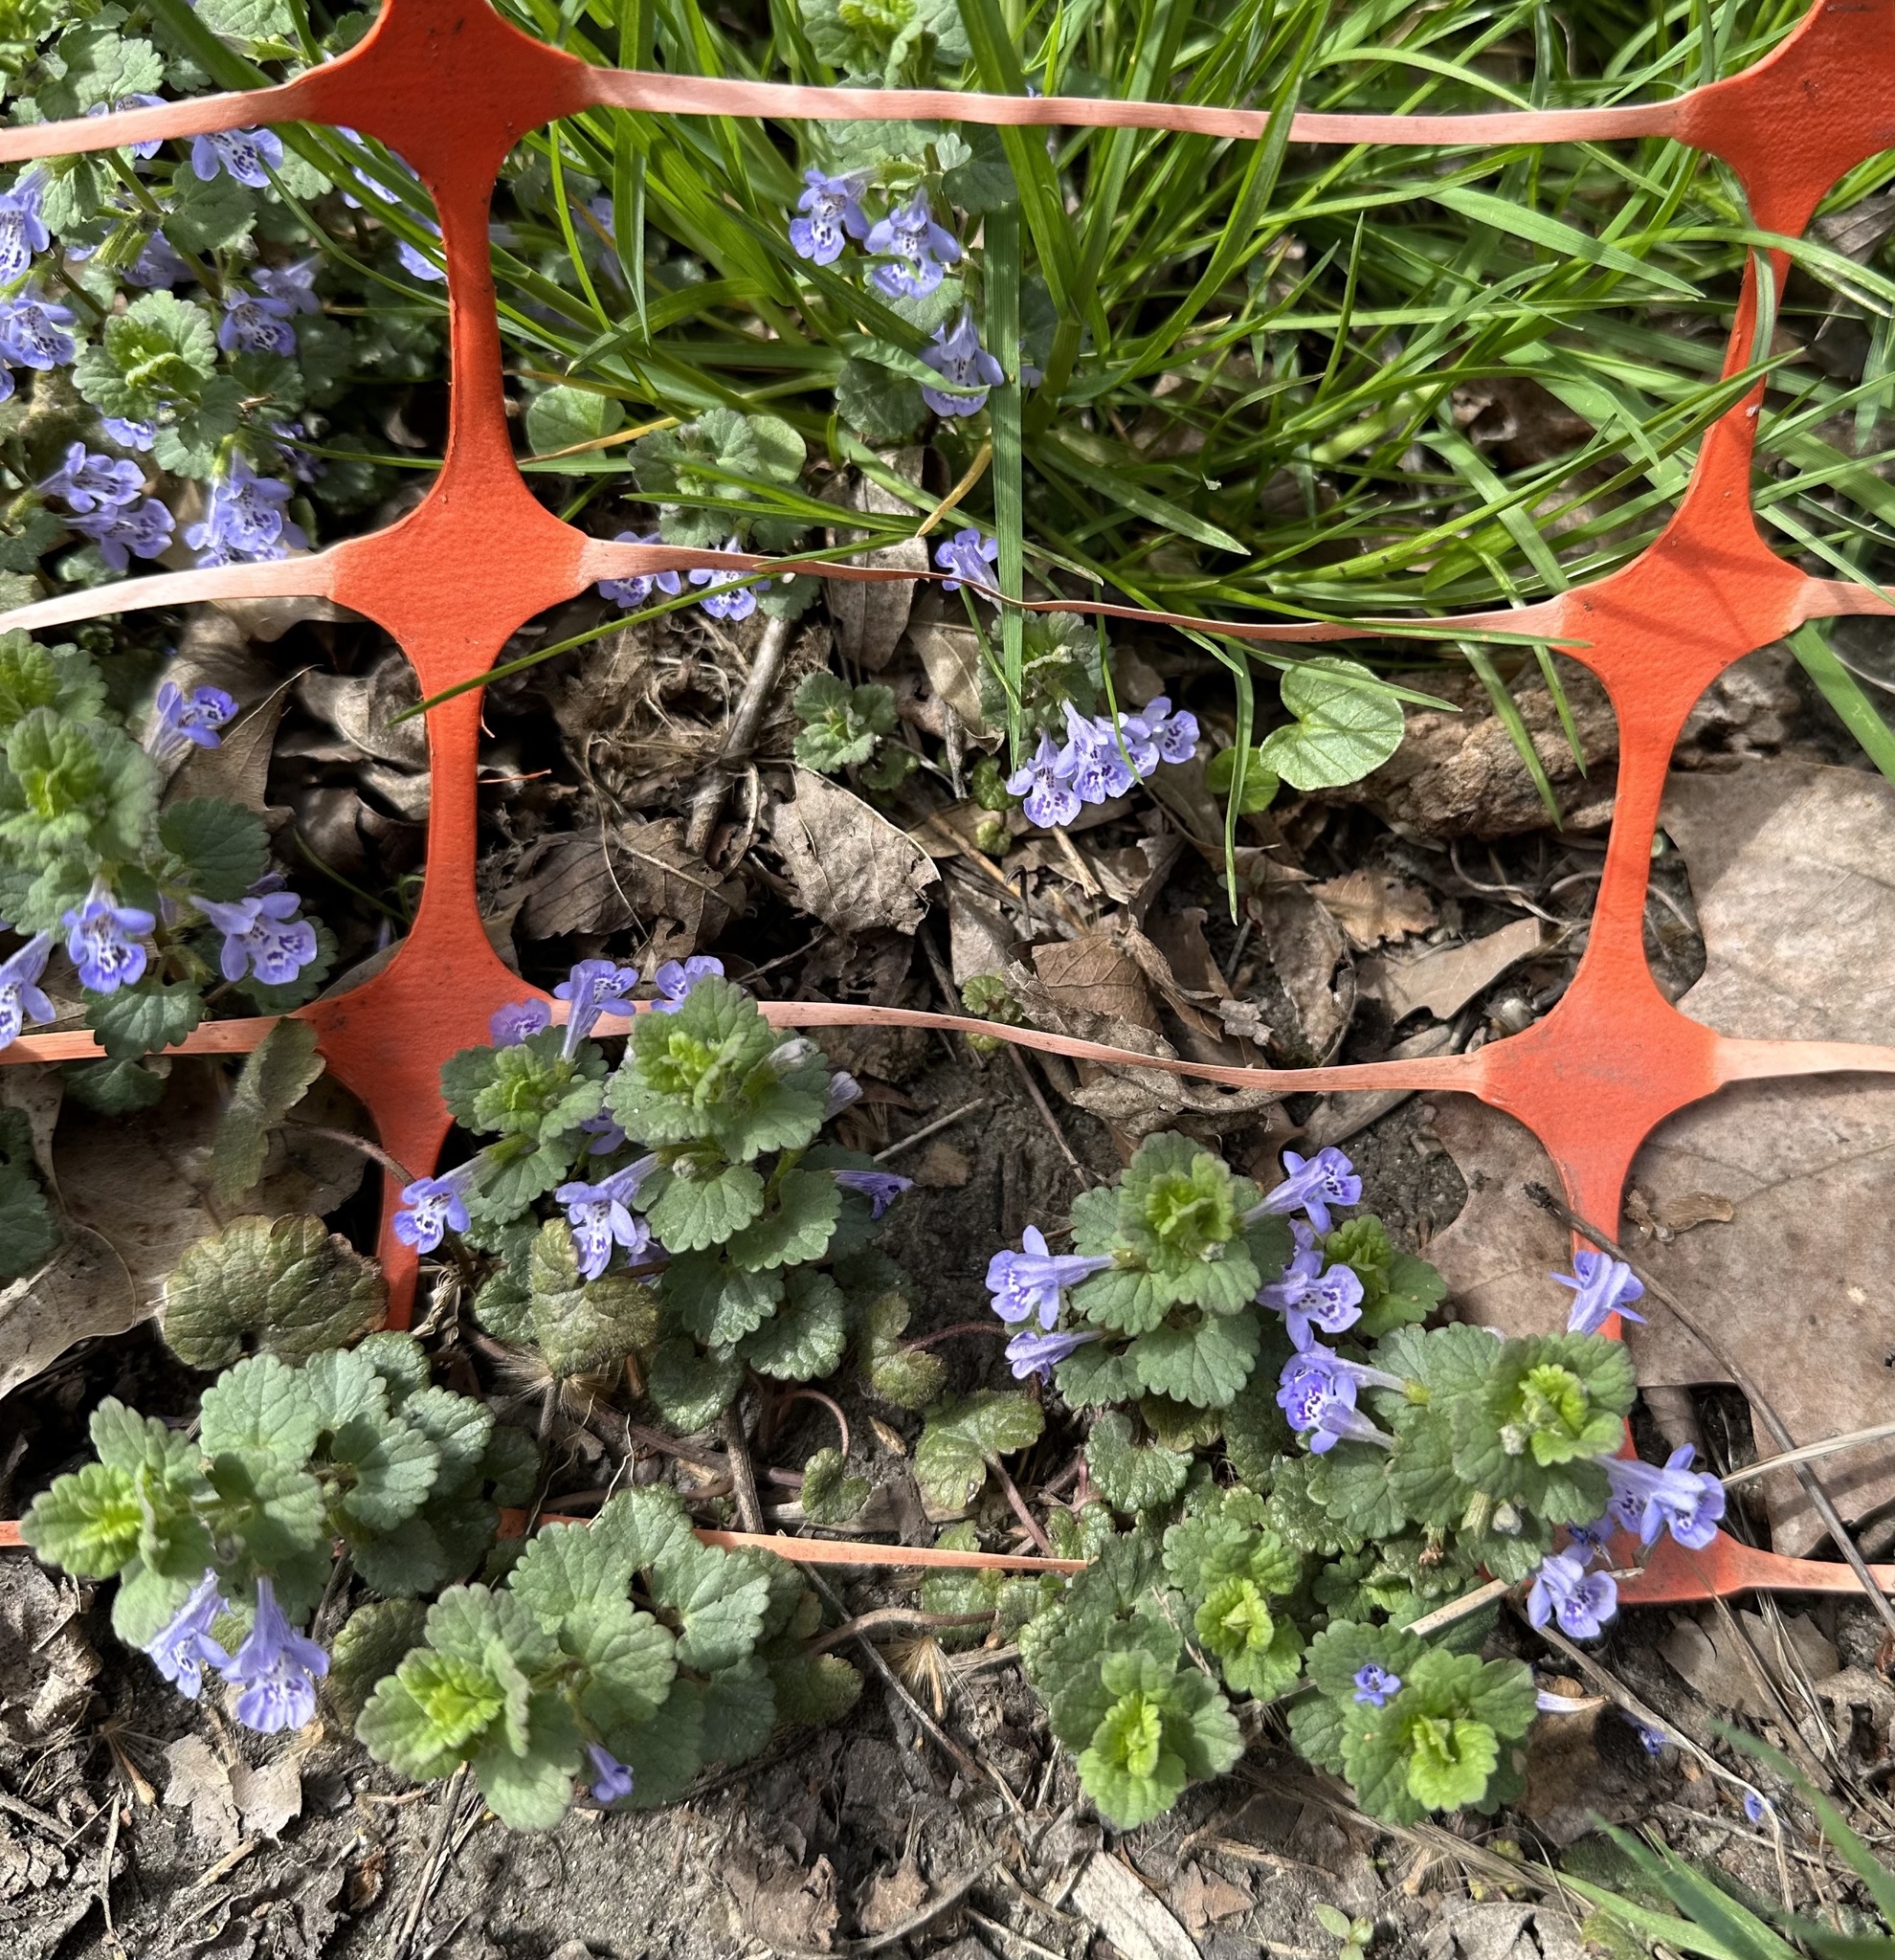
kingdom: Plantae
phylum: Tracheophyta
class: Magnoliopsida
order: Lamiales
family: Lamiaceae
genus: Glechoma
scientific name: Glechoma hederacea
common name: Ground ivy
